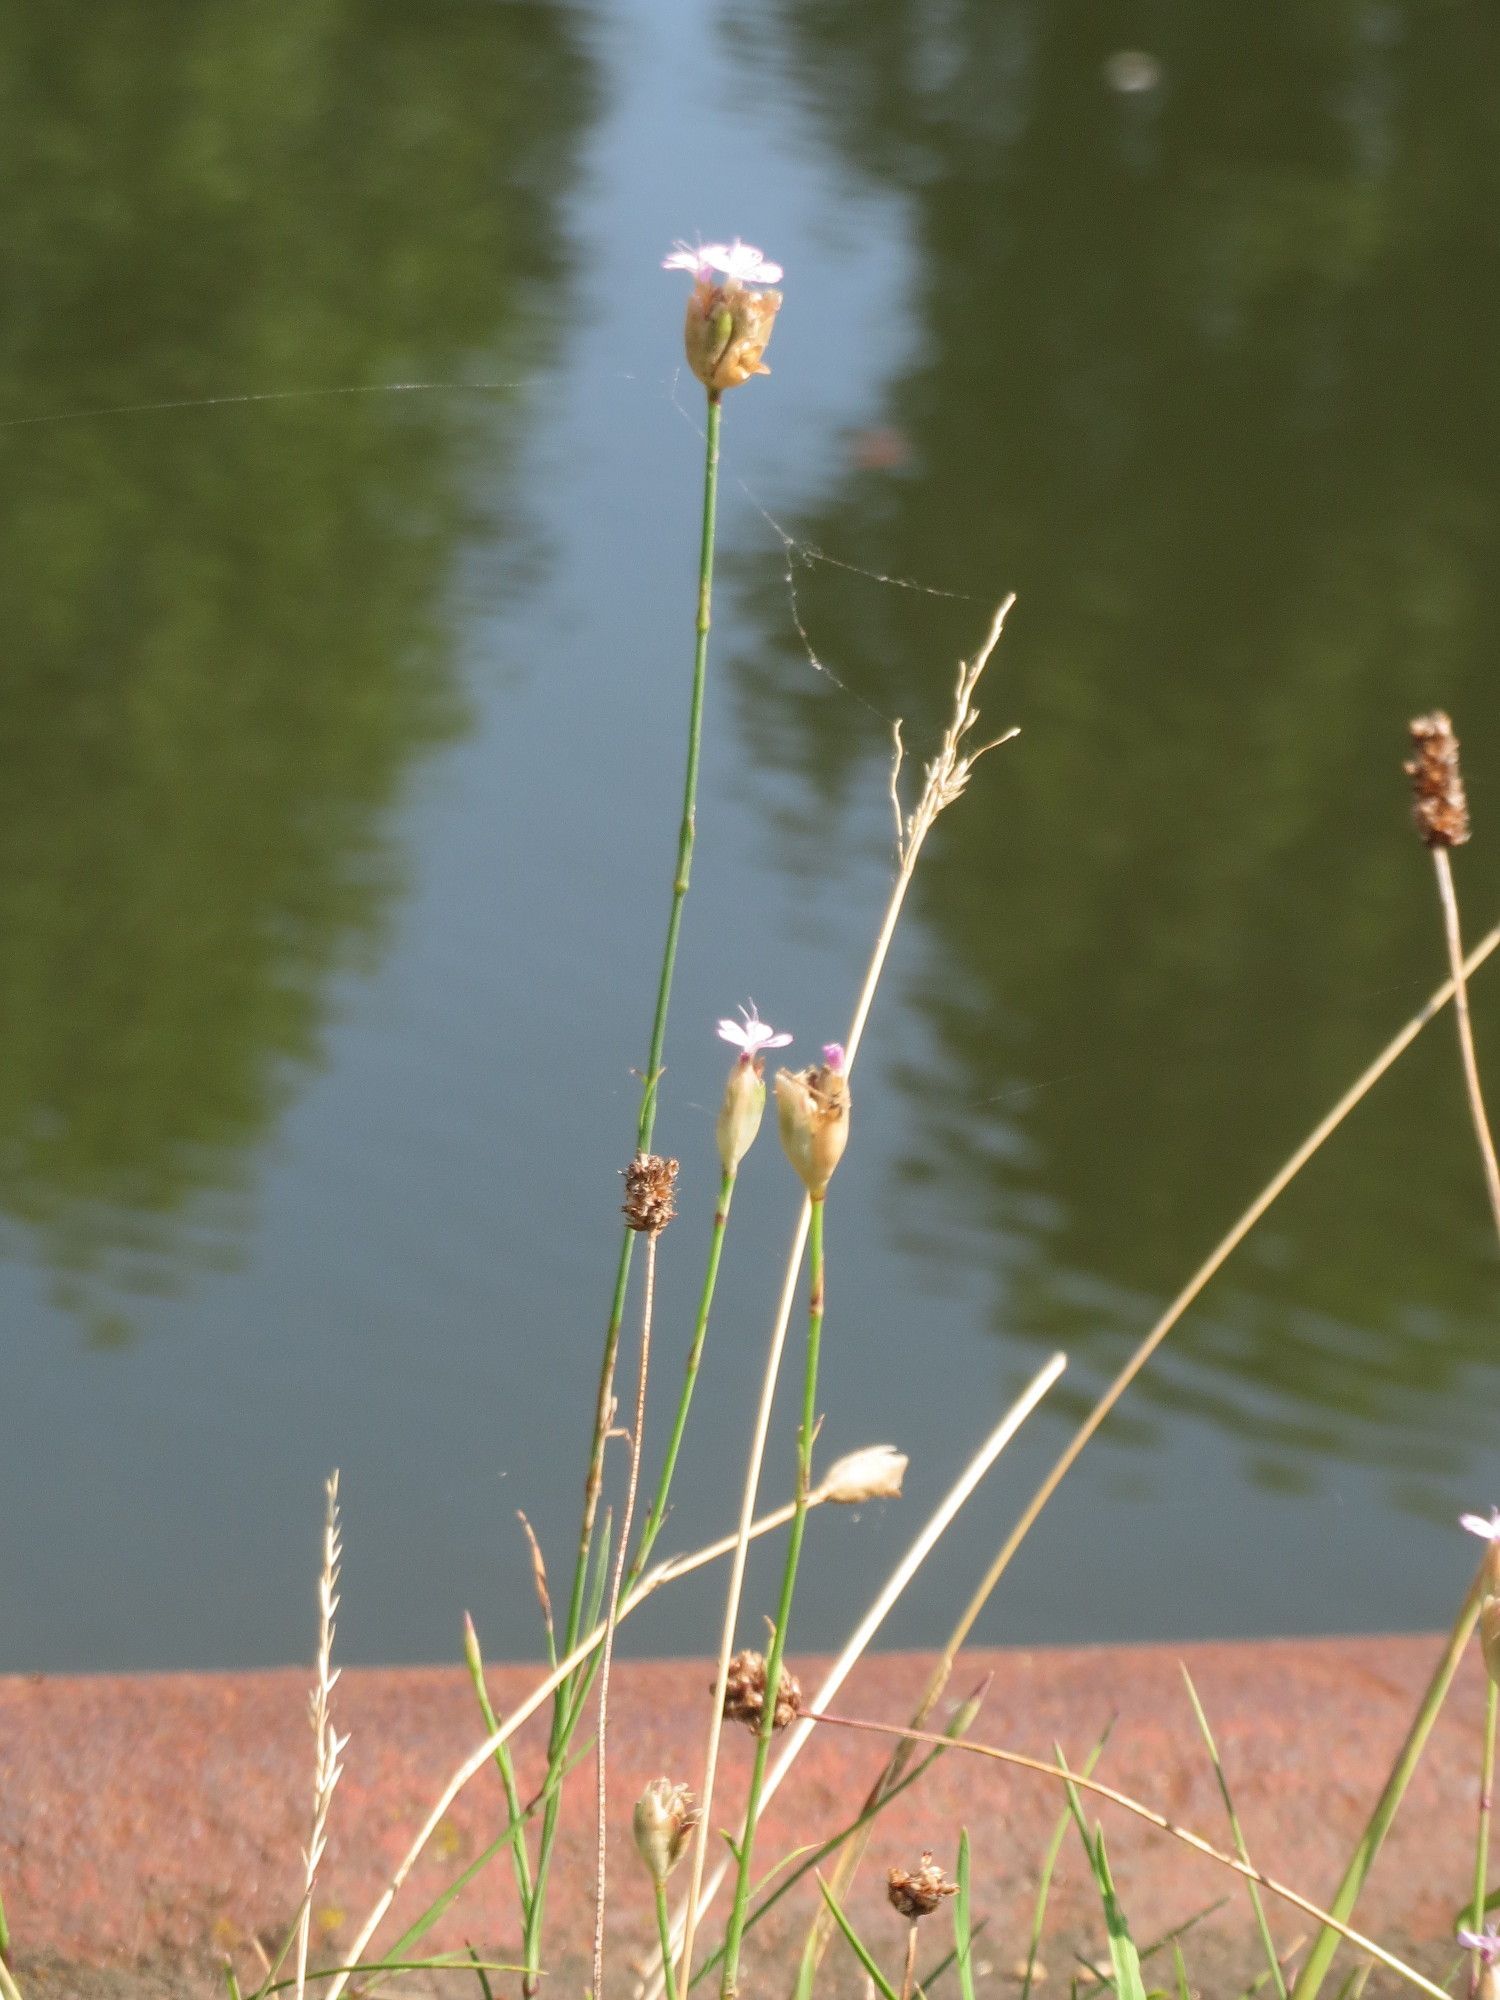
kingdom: Plantae
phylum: Tracheophyta
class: Magnoliopsida
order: Caryophyllales
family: Caryophyllaceae
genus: Petrorhagia
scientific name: Petrorhagia prolifera
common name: Proliferous pink
